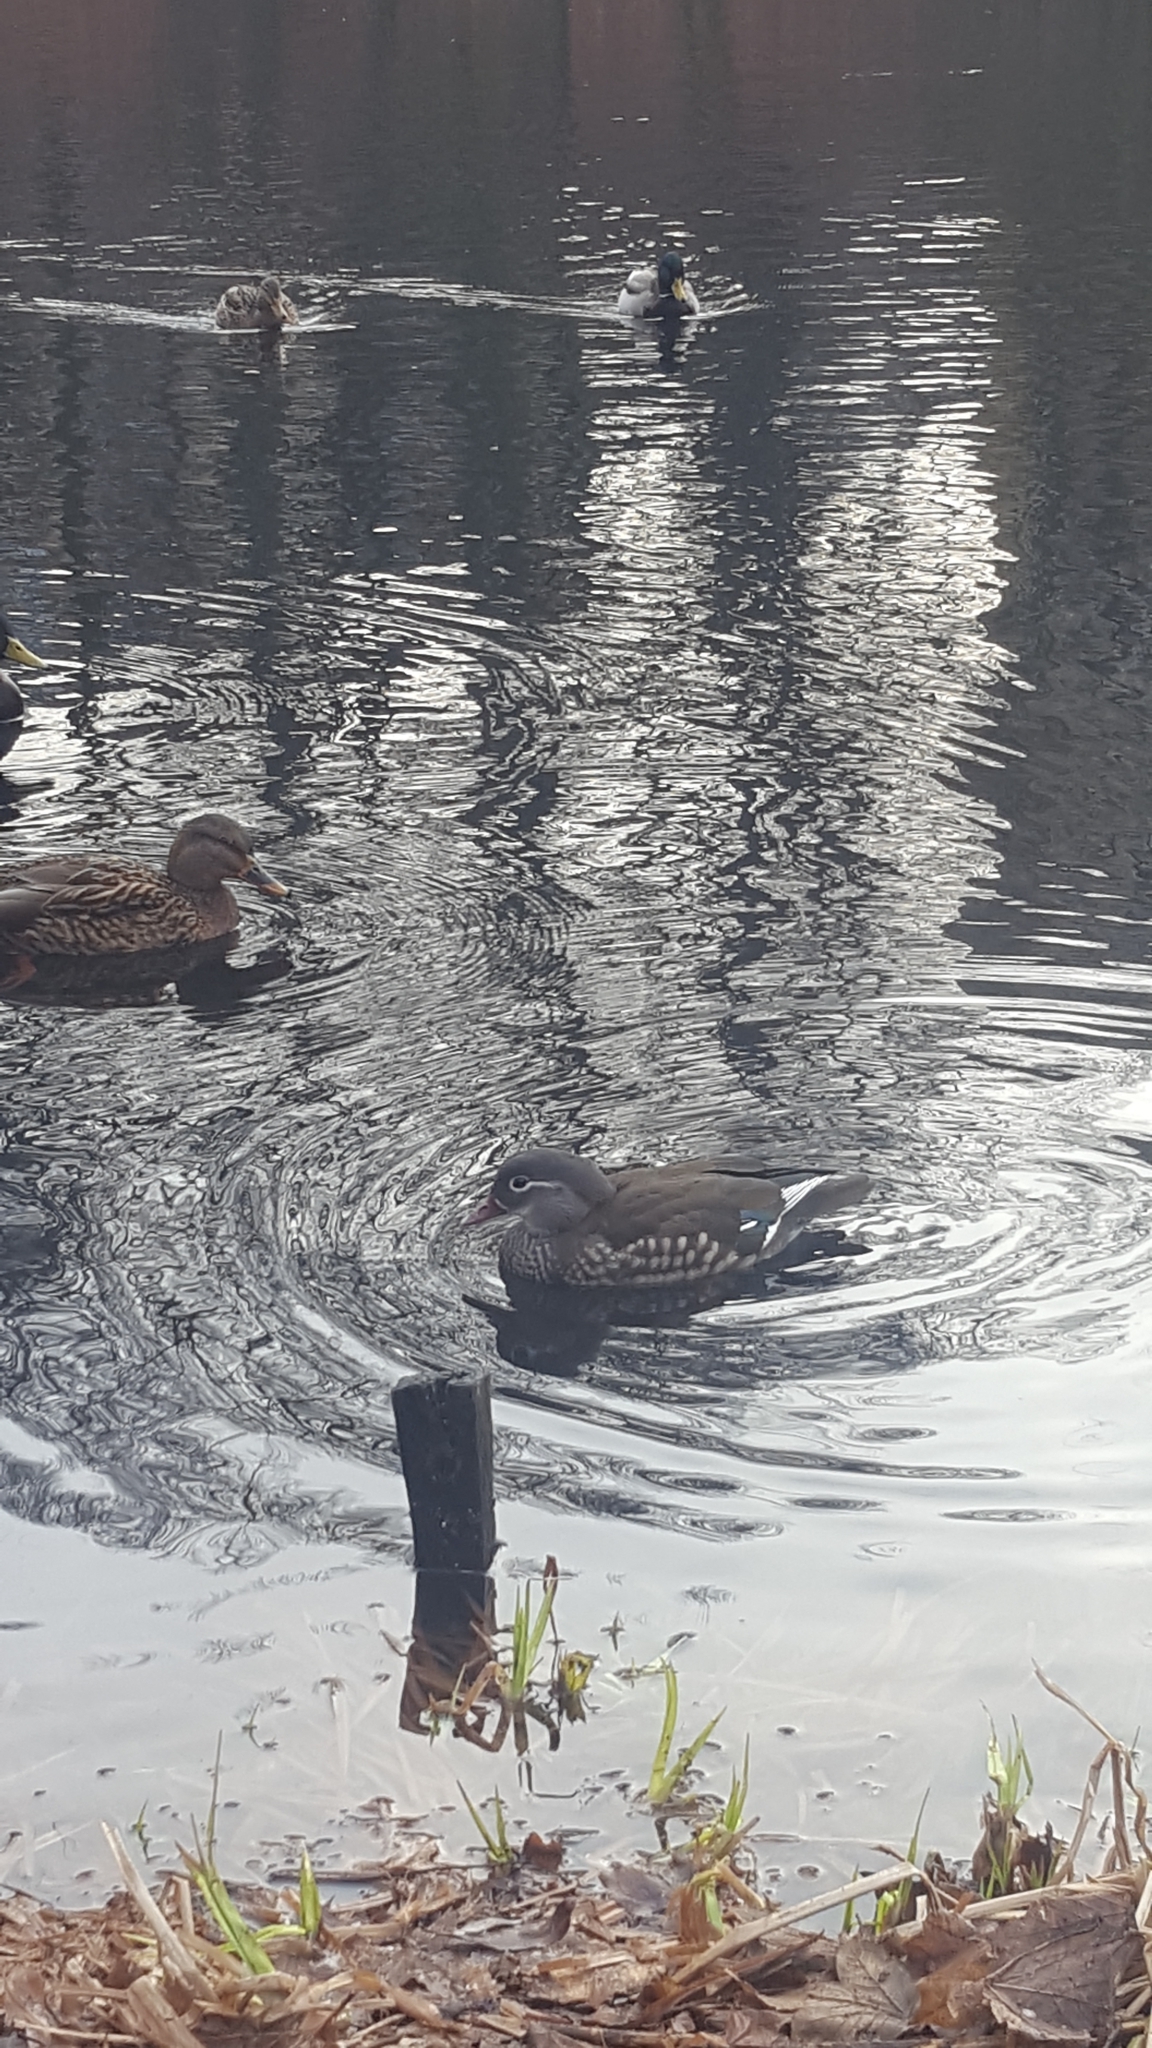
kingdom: Animalia
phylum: Chordata
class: Aves
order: Anseriformes
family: Anatidae
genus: Aix
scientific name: Aix galericulata
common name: Mandarin duck
